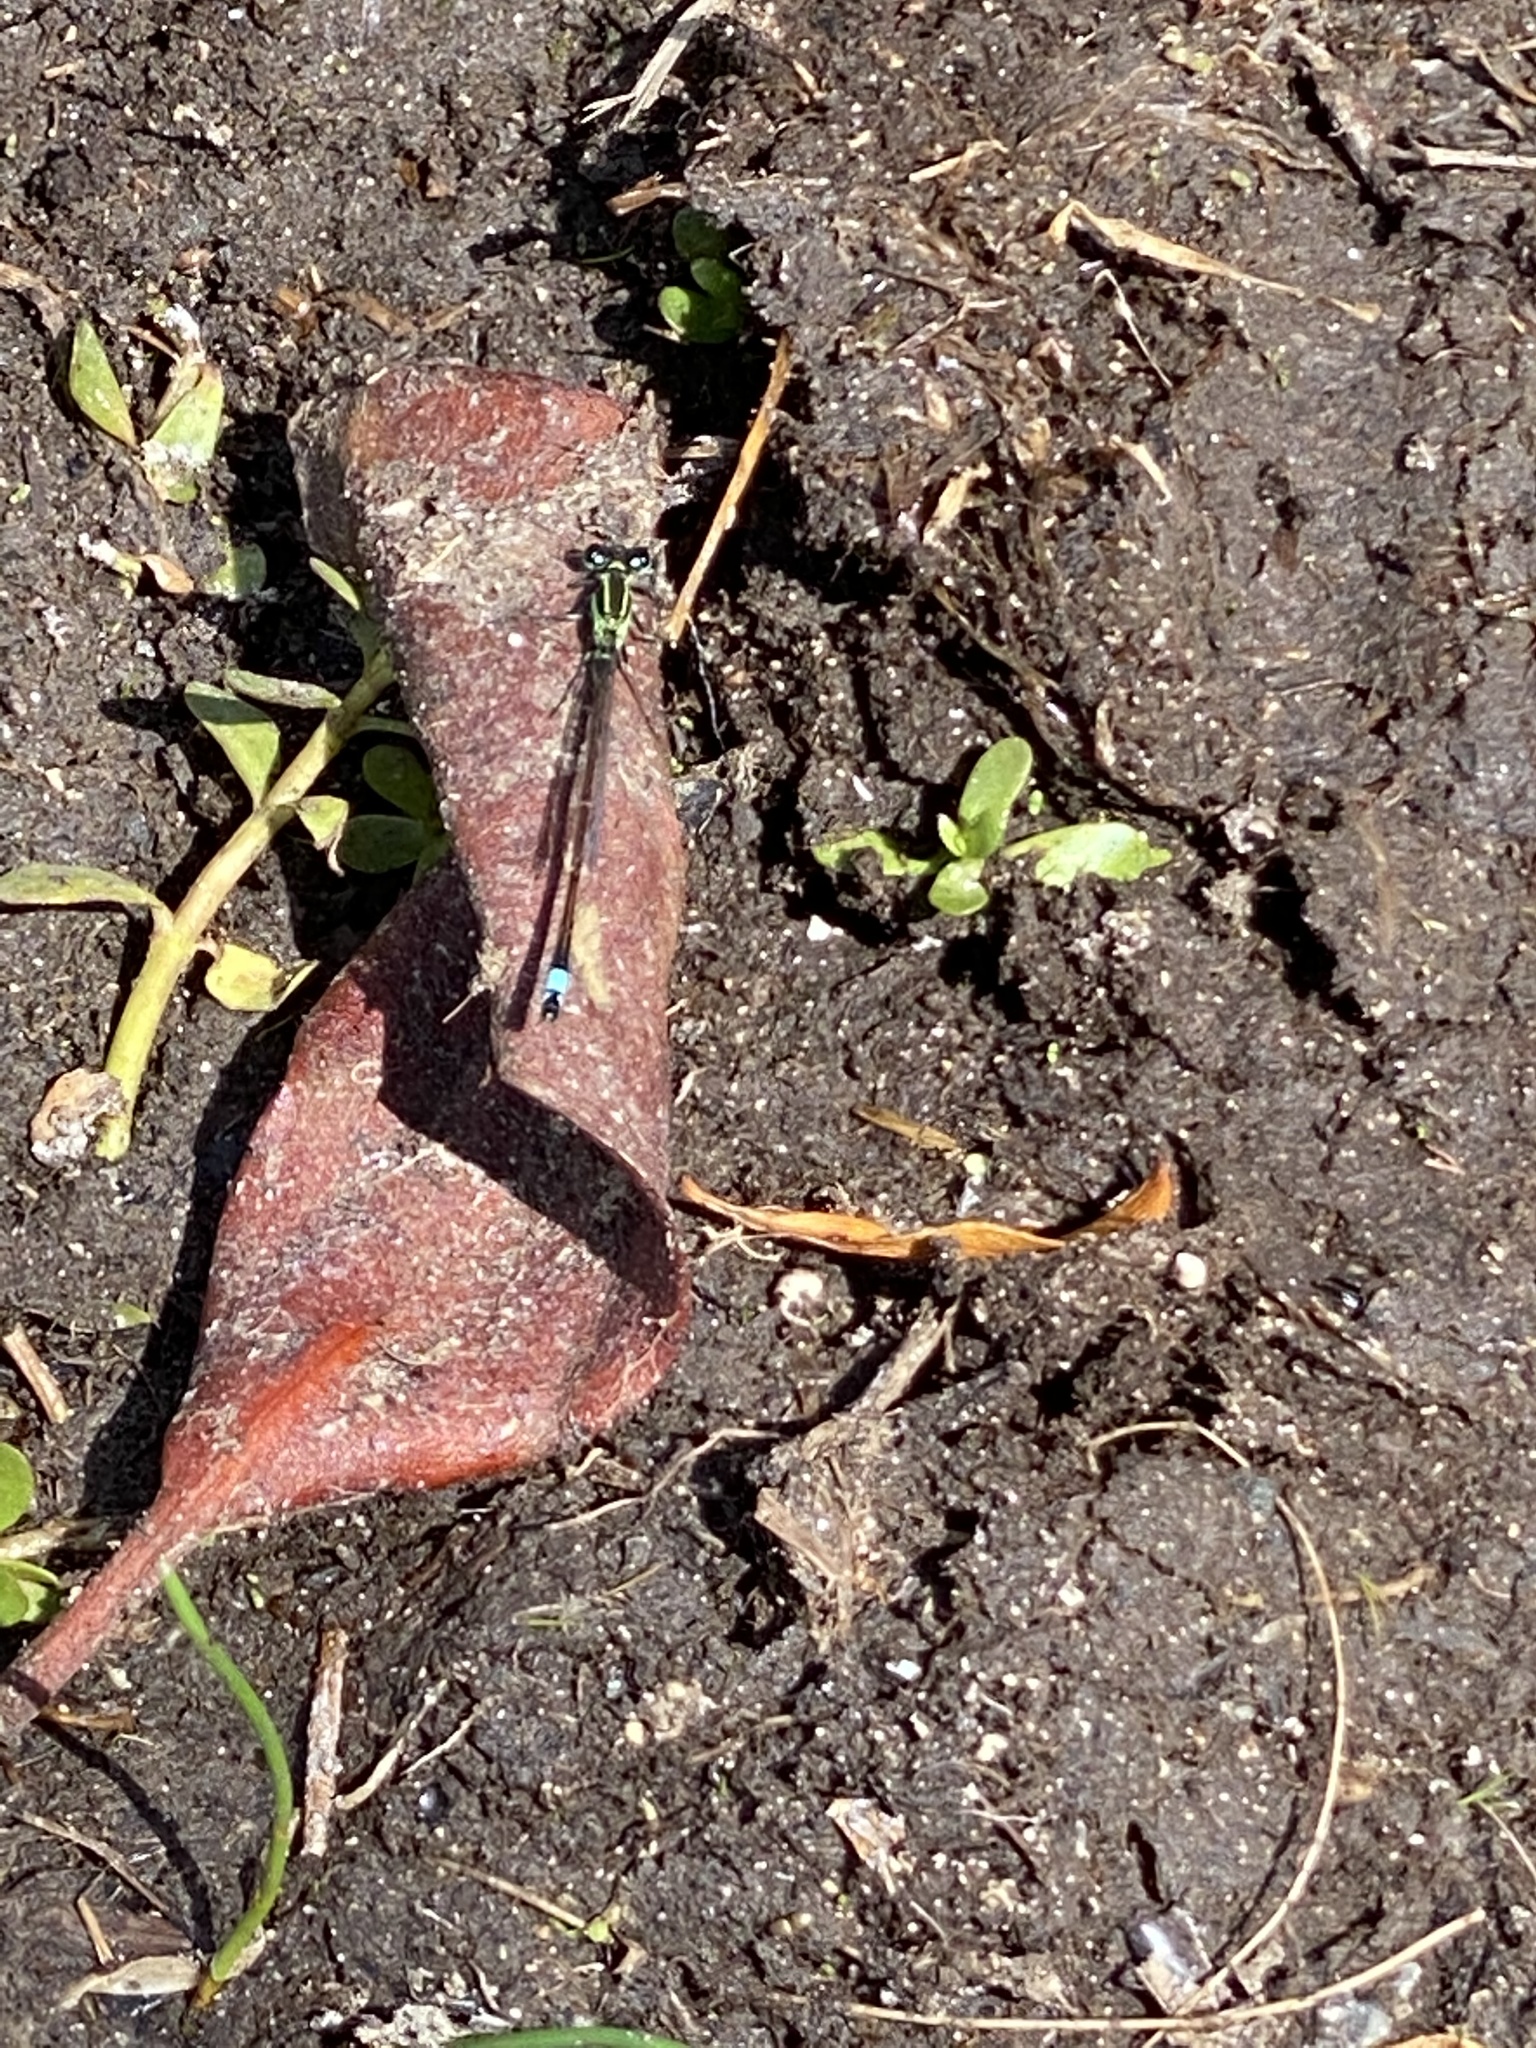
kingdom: Animalia
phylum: Arthropoda
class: Insecta
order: Odonata
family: Coenagrionidae
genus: Ischnura
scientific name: Ischnura ramburii
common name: Rambur's forktail
